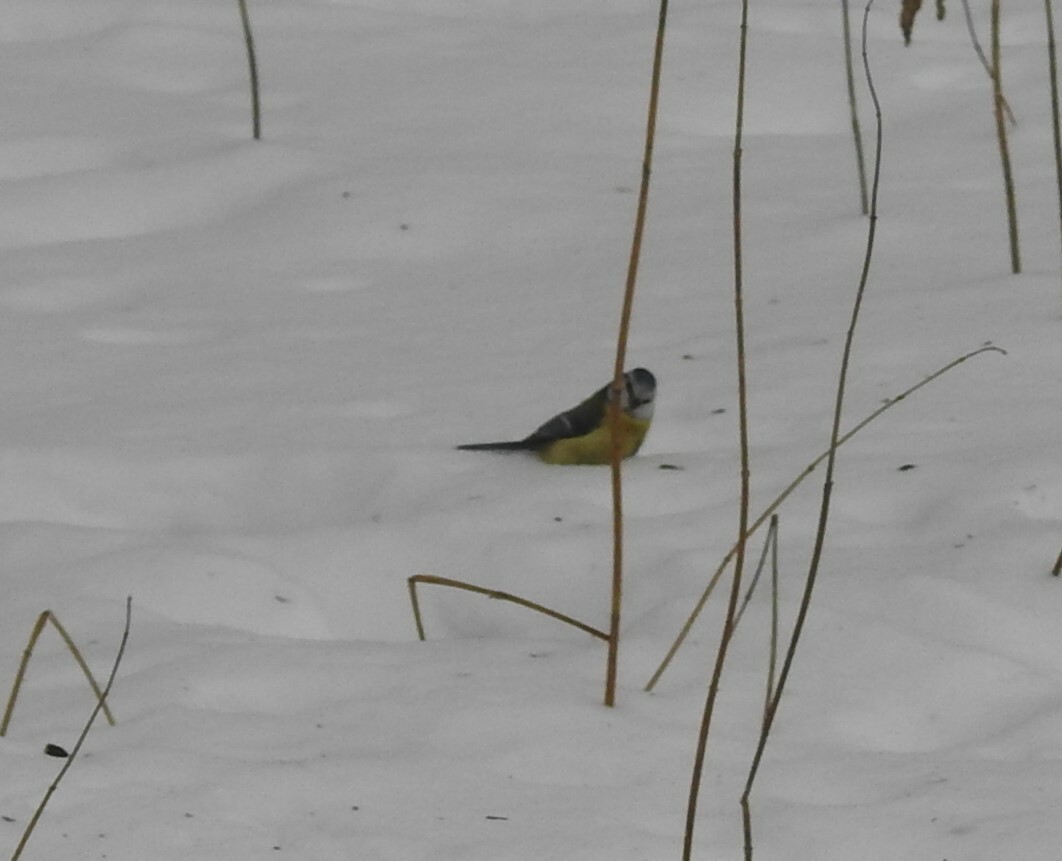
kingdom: Animalia
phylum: Chordata
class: Aves
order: Passeriformes
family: Paridae
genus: Cyanistes
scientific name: Cyanistes caeruleus
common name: Eurasian blue tit
